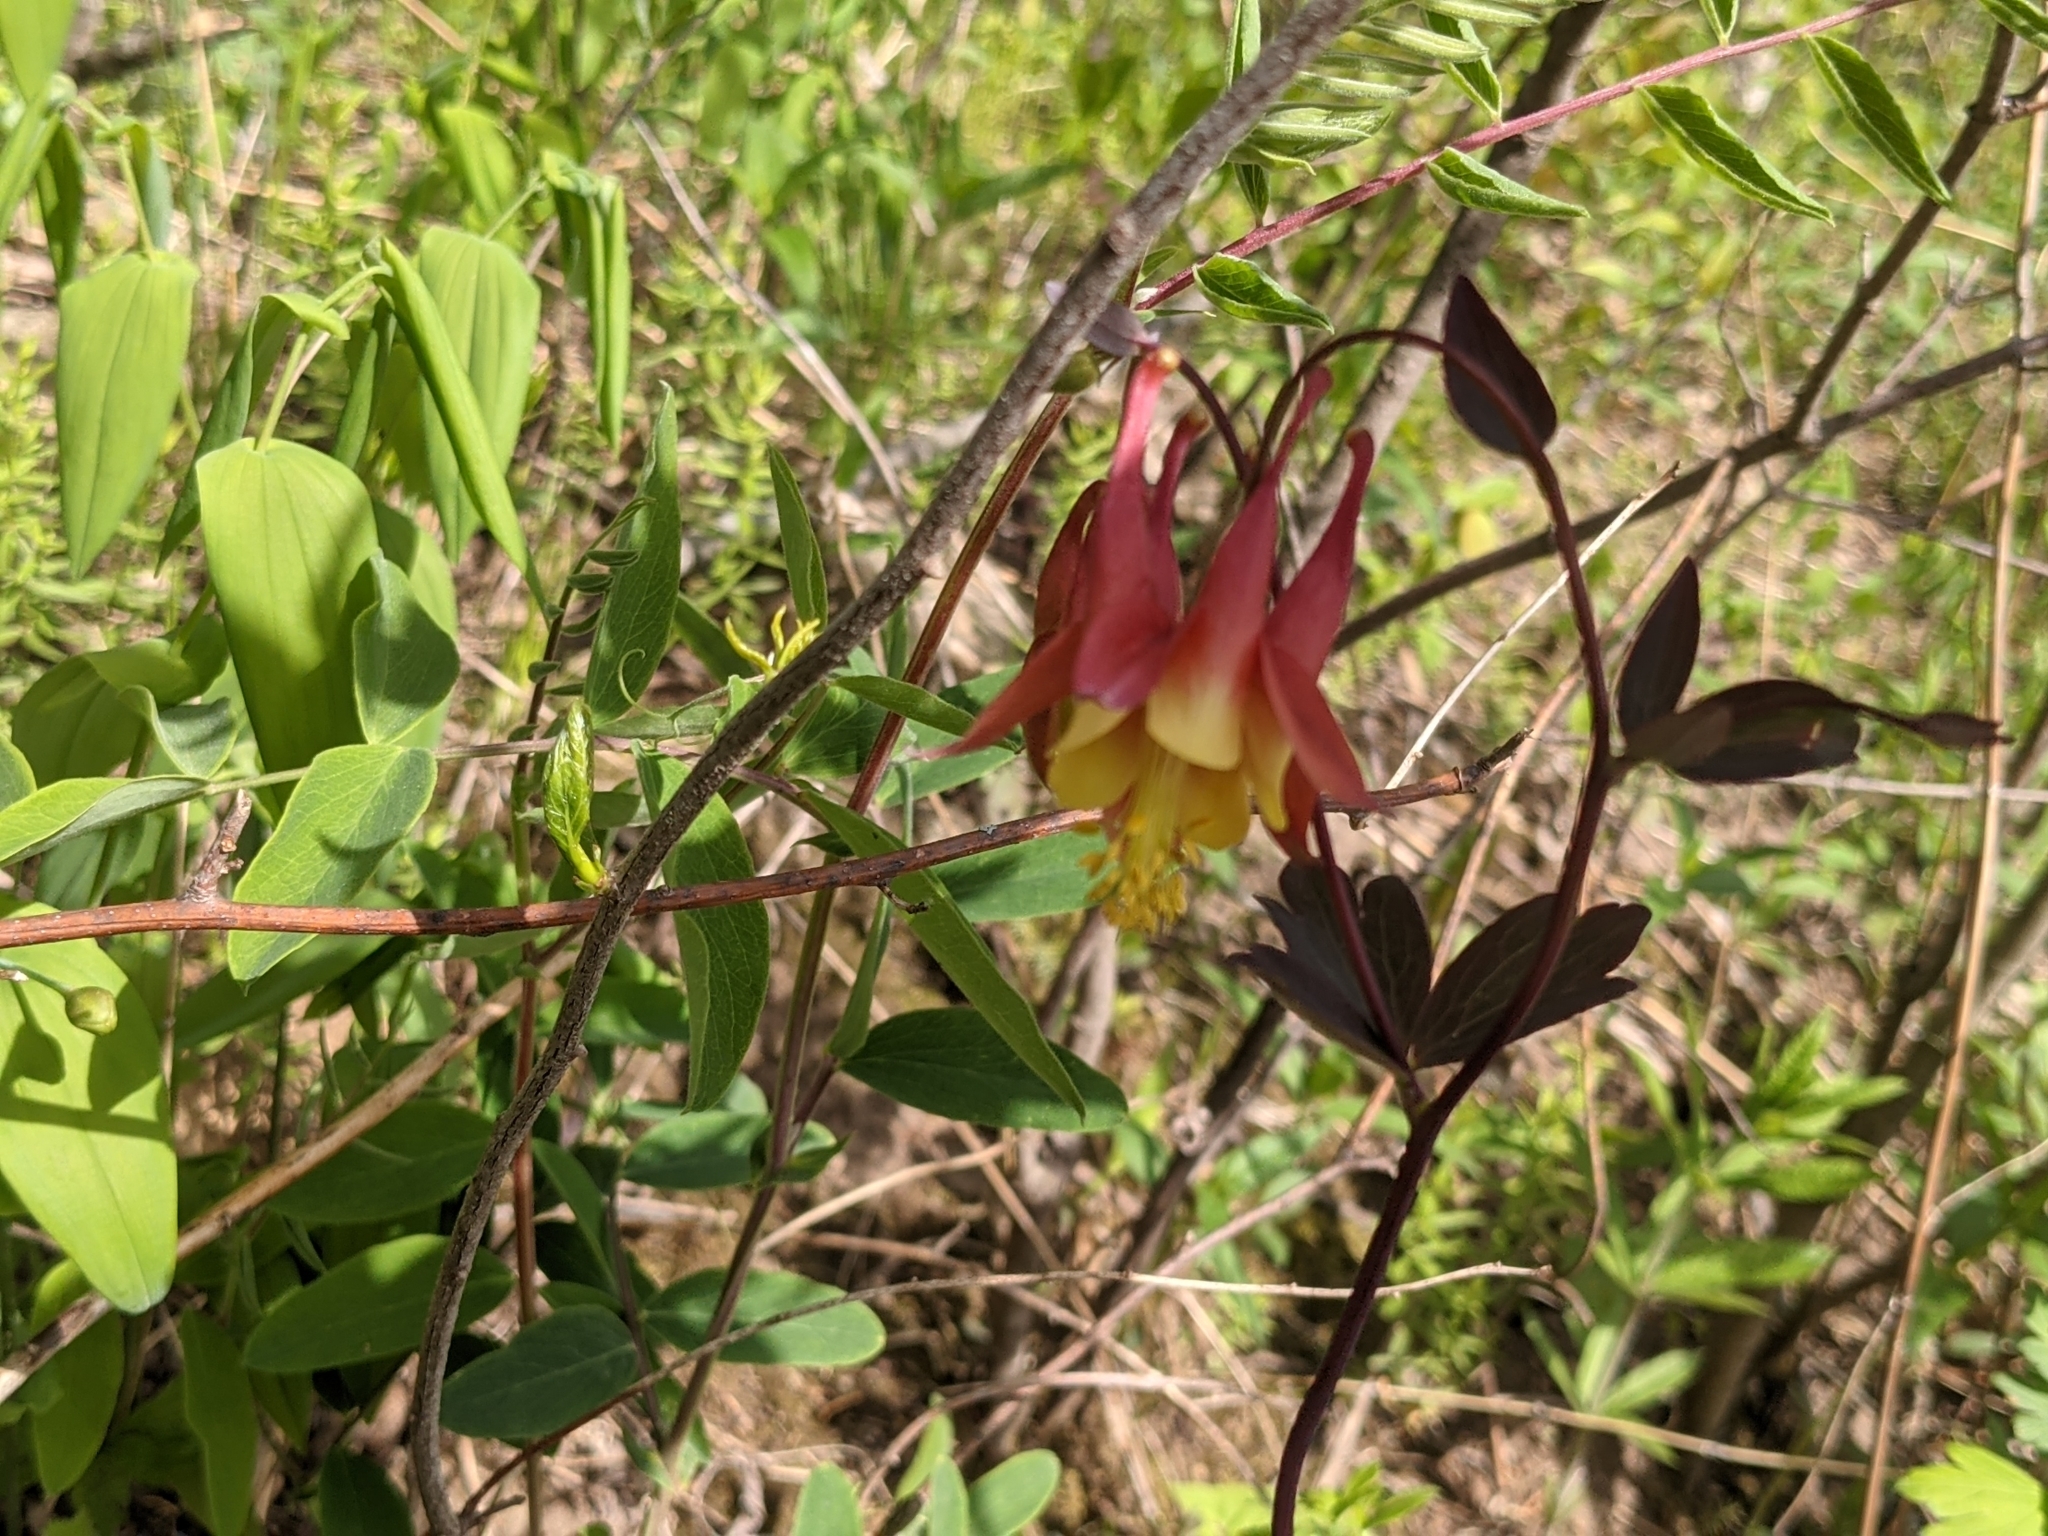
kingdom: Plantae
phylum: Tracheophyta
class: Magnoliopsida
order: Ranunculales
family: Ranunculaceae
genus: Aquilegia
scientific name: Aquilegia canadensis
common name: American columbine
